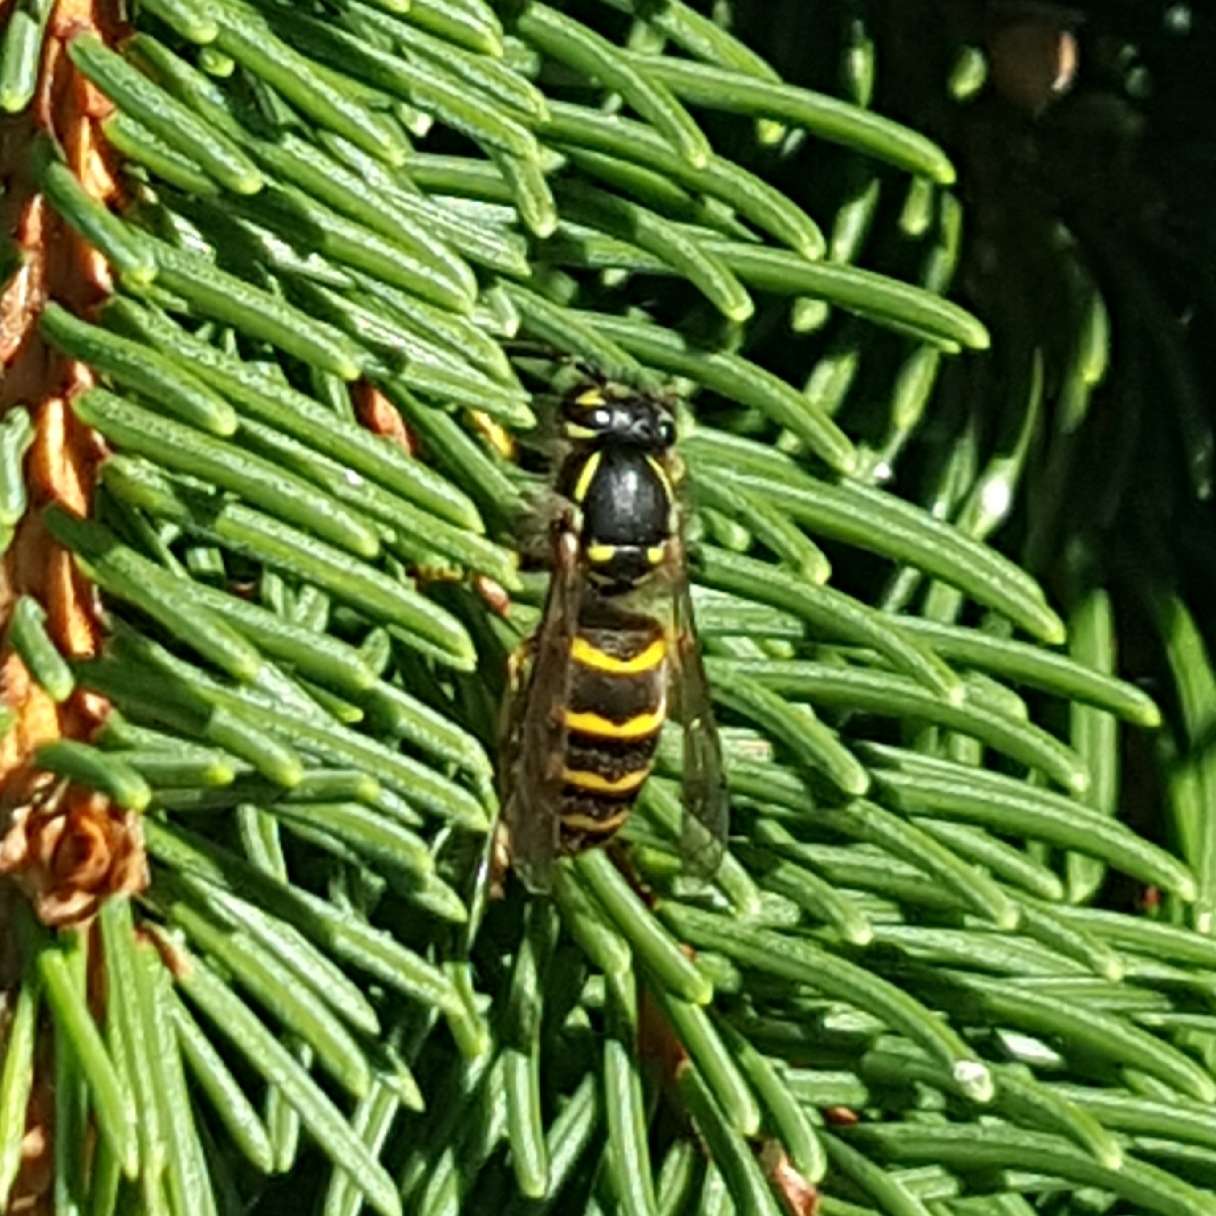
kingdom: Animalia
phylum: Arthropoda
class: Insecta
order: Hymenoptera
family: Vespidae
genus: Vespula
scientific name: Vespula alascensis
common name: Alaska yellowjacket
